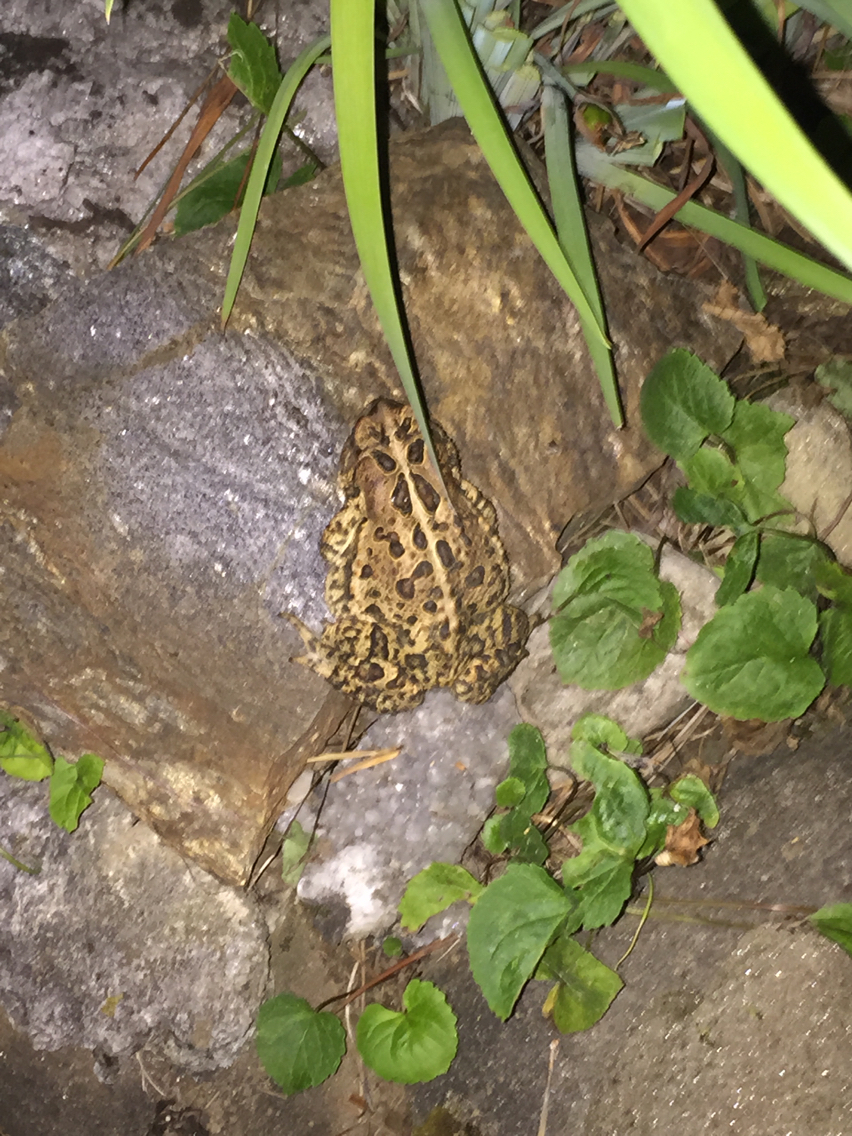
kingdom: Animalia
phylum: Chordata
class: Amphibia
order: Anura
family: Bufonidae
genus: Anaxyrus
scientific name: Anaxyrus americanus
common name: American toad
